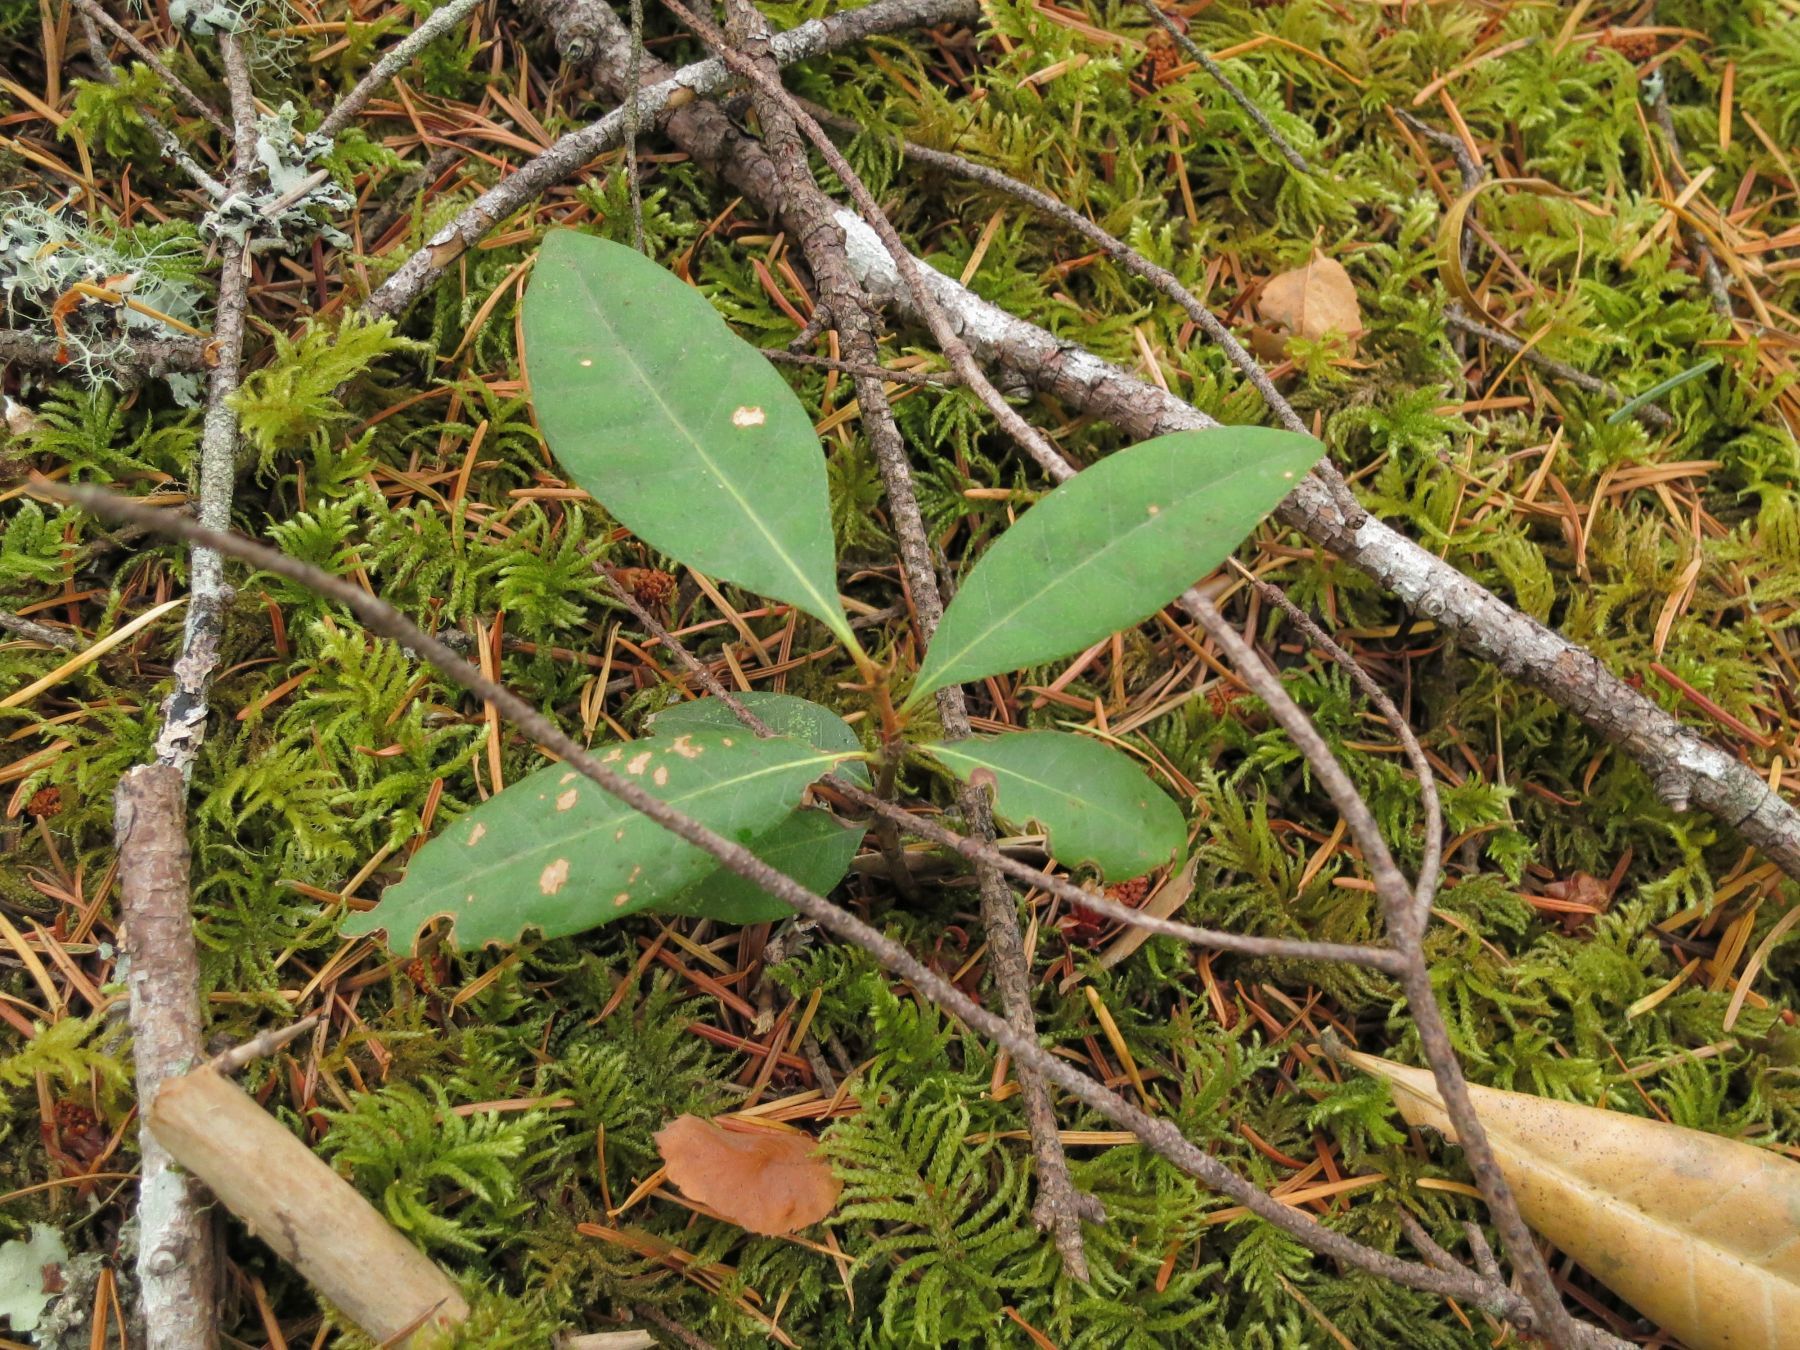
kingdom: Plantae
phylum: Tracheophyta
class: Magnoliopsida
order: Fagales
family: Fagaceae
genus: Chrysolepis
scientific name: Chrysolepis chrysophylla
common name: Giant chinquapin
